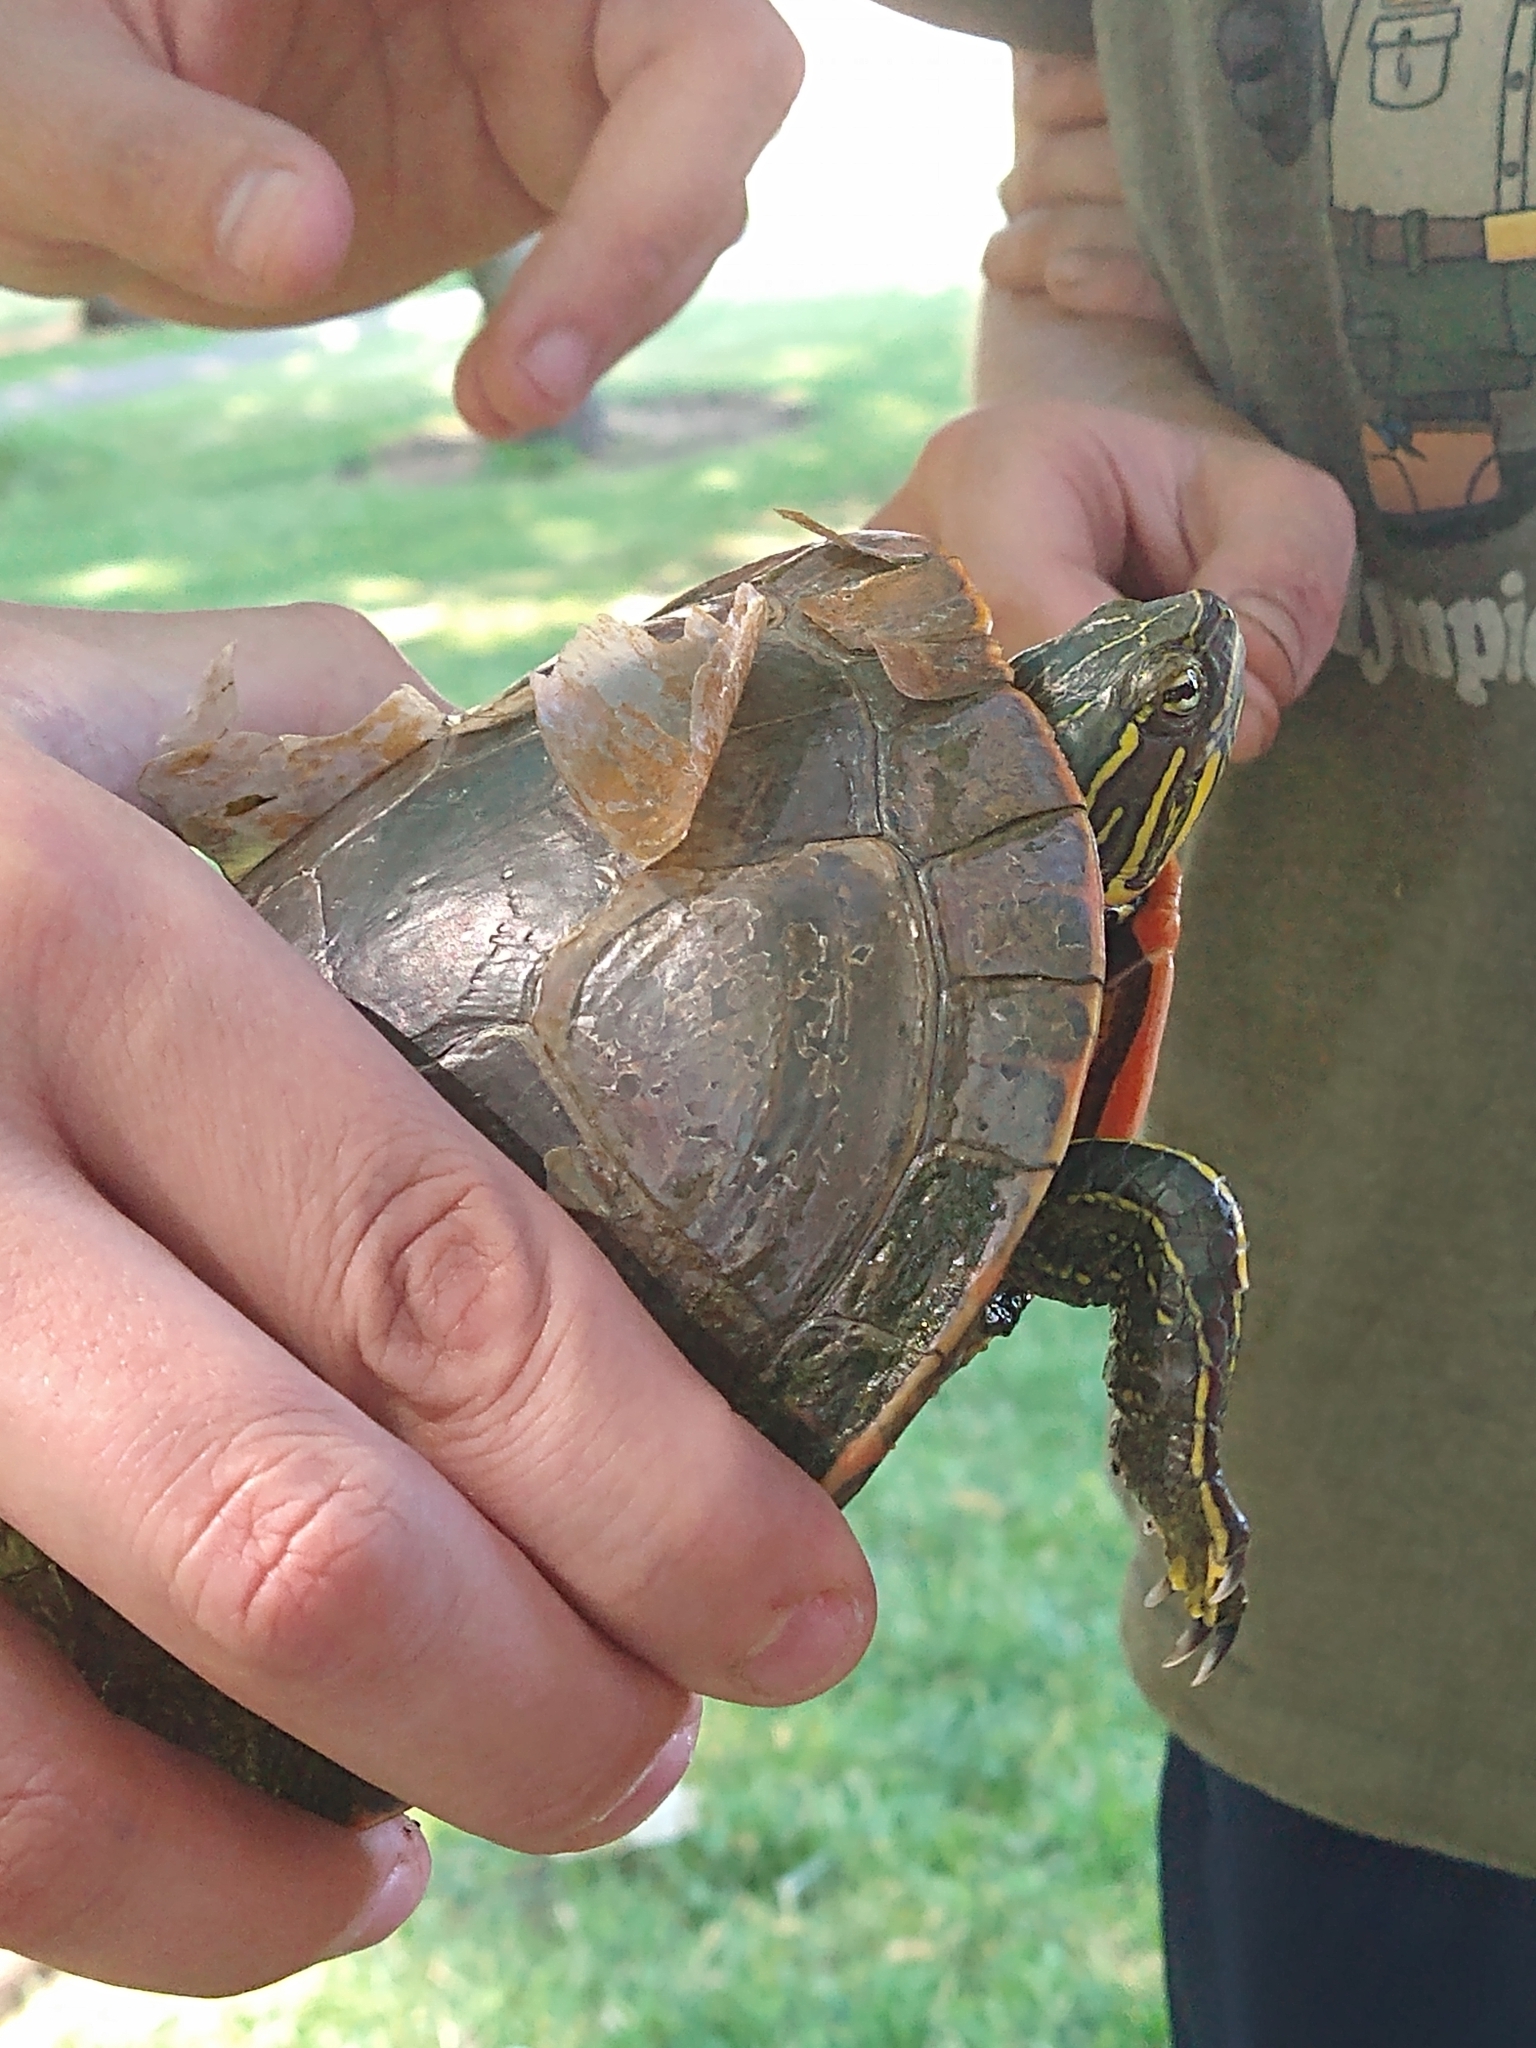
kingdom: Animalia
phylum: Chordata
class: Testudines
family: Emydidae
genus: Chrysemys
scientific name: Chrysemys picta
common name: Painted turtle
